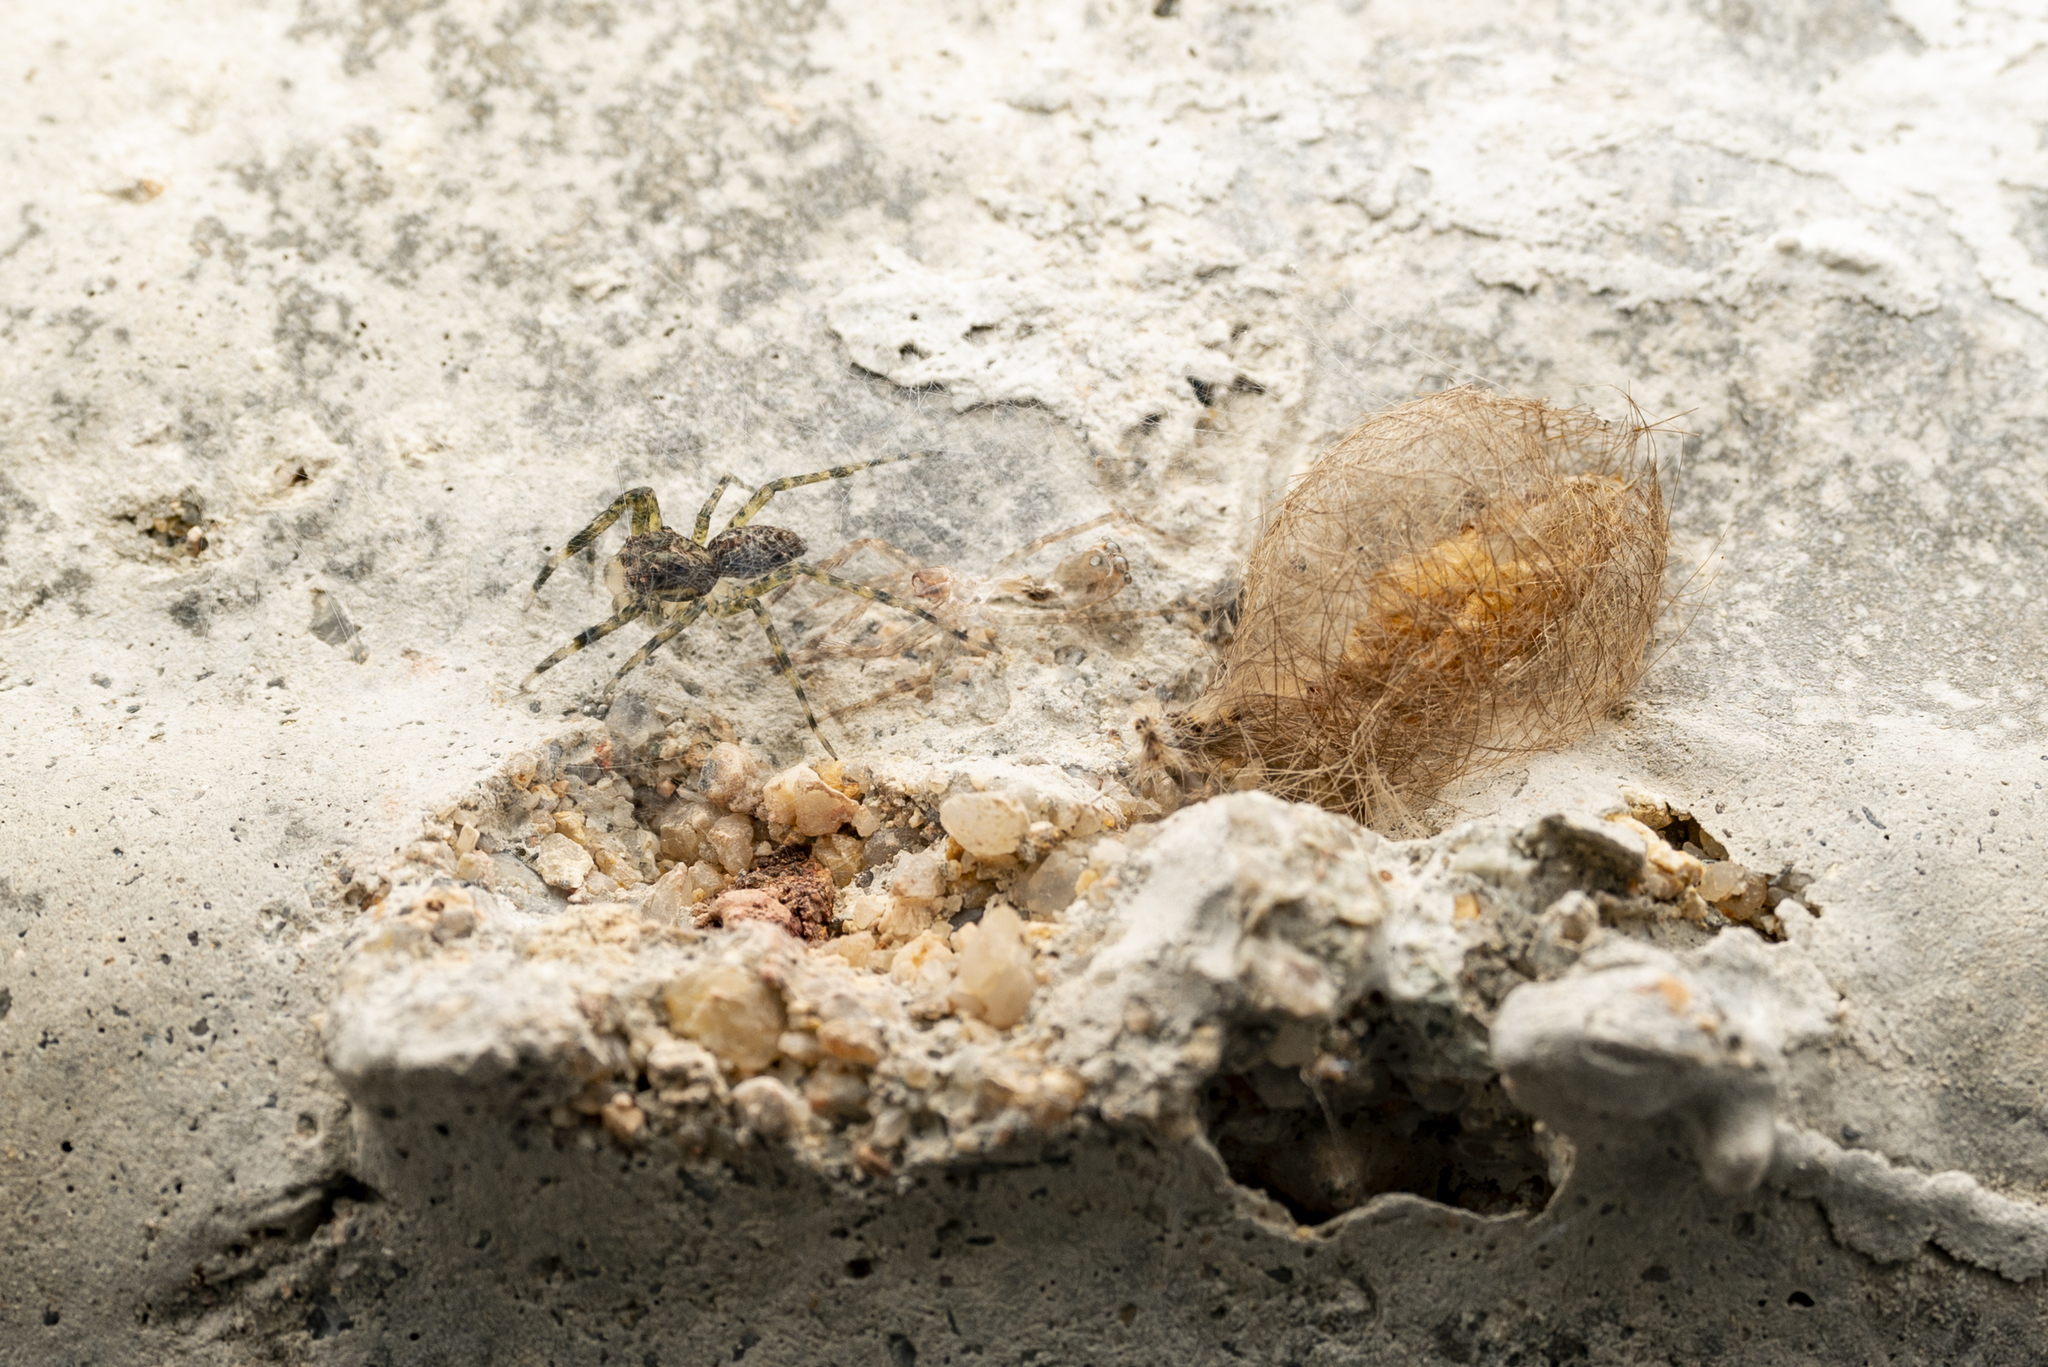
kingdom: Animalia
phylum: Arthropoda
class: Arachnida
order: Araneae
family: Salticidae
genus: Spartaeus
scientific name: Spartaeus zhangi
